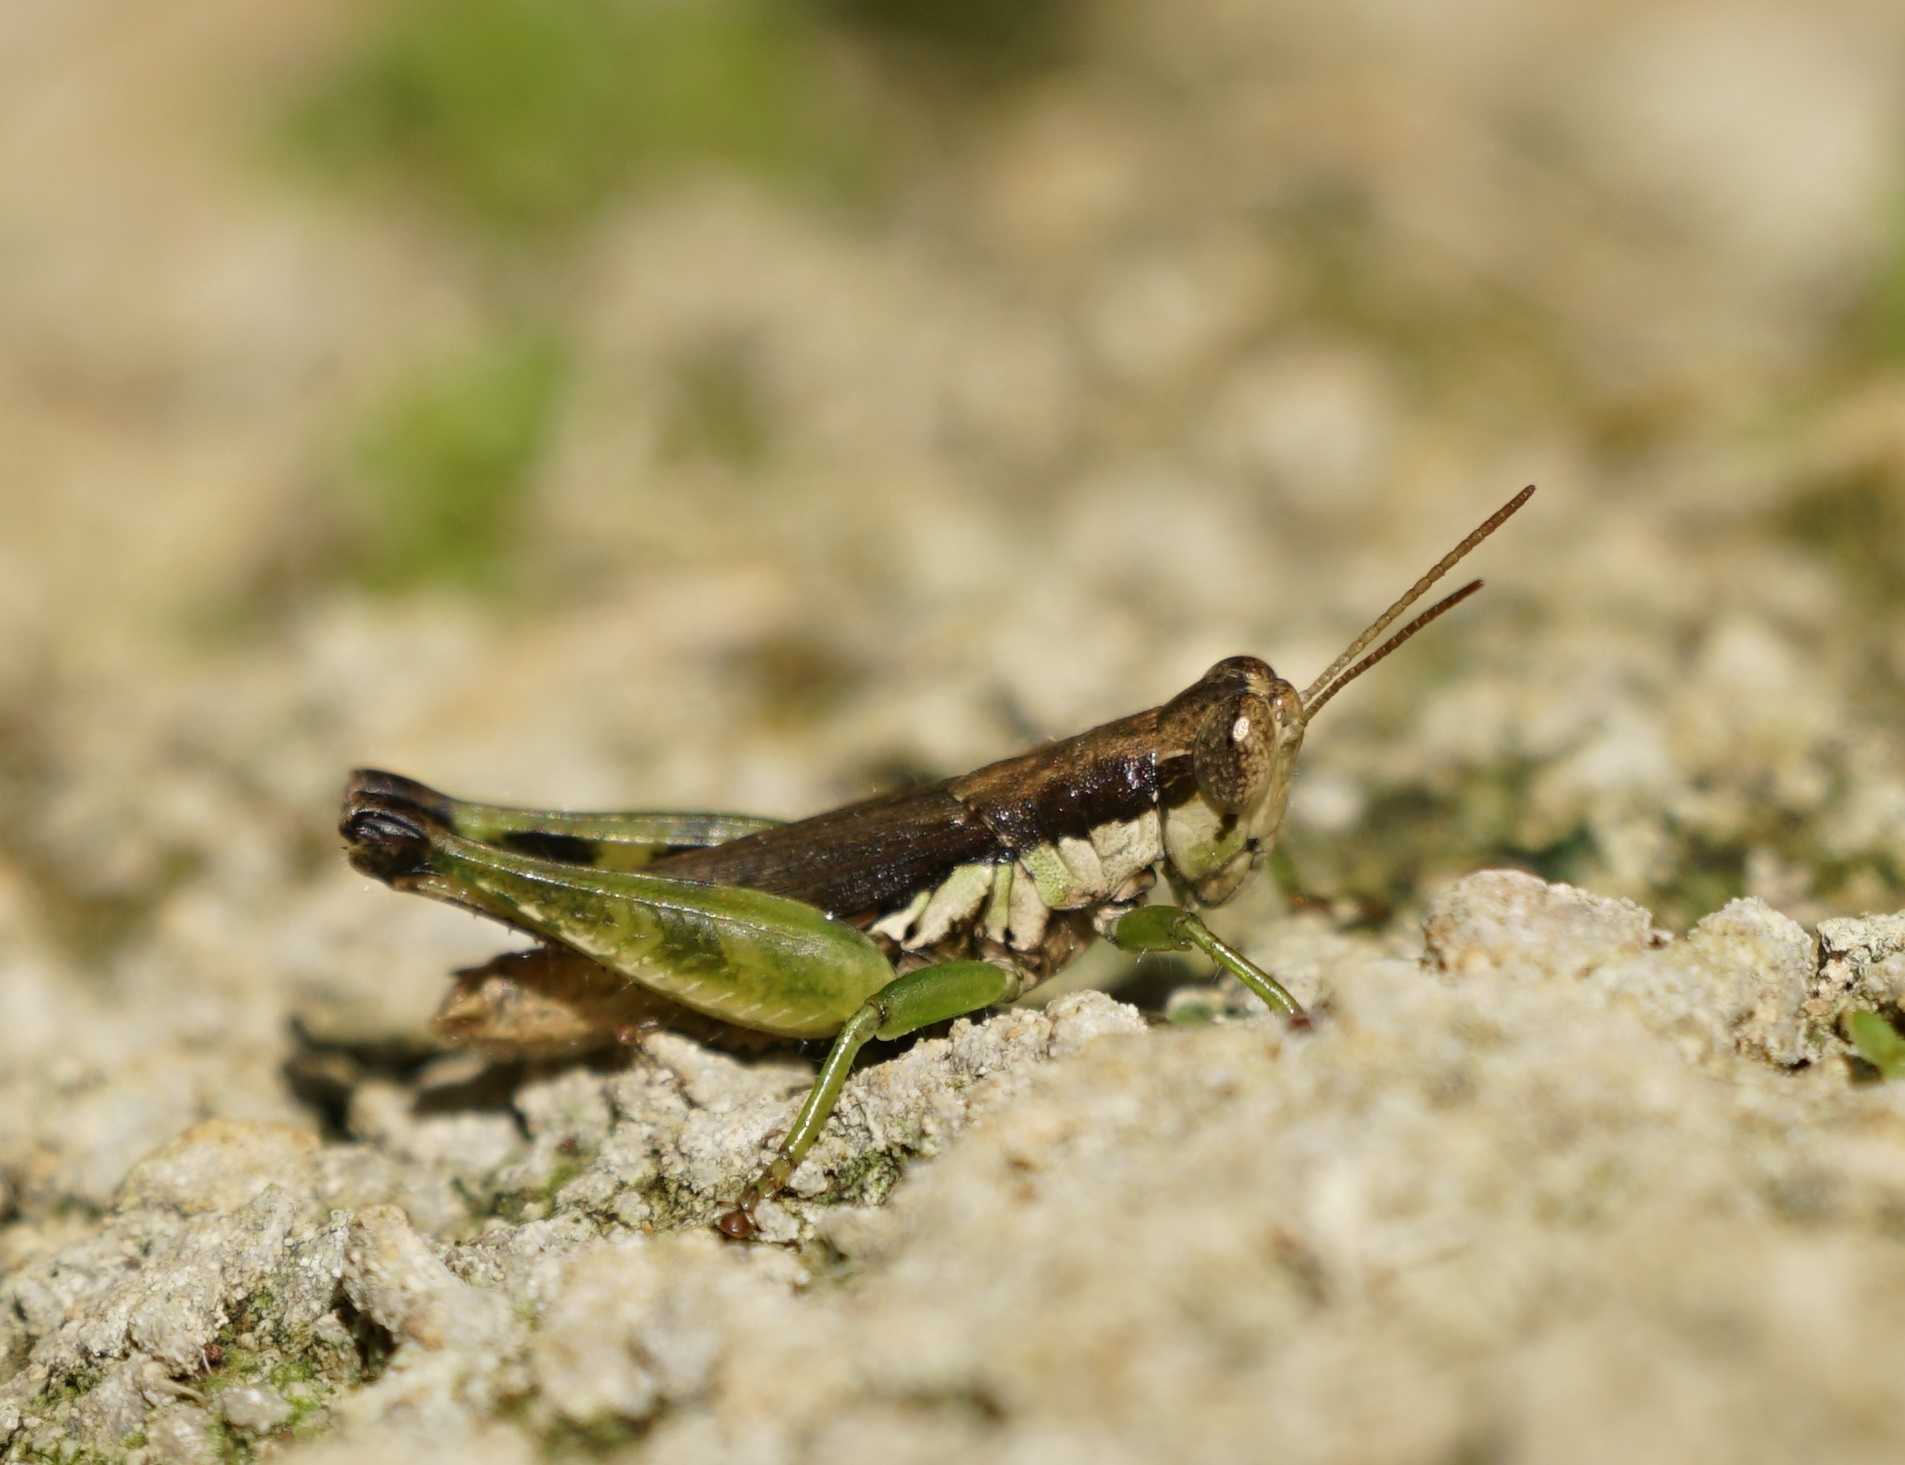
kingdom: Animalia
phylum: Arthropoda
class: Insecta
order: Orthoptera
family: Acrididae
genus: Pseudoxya
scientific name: Pseudoxya diminuta
